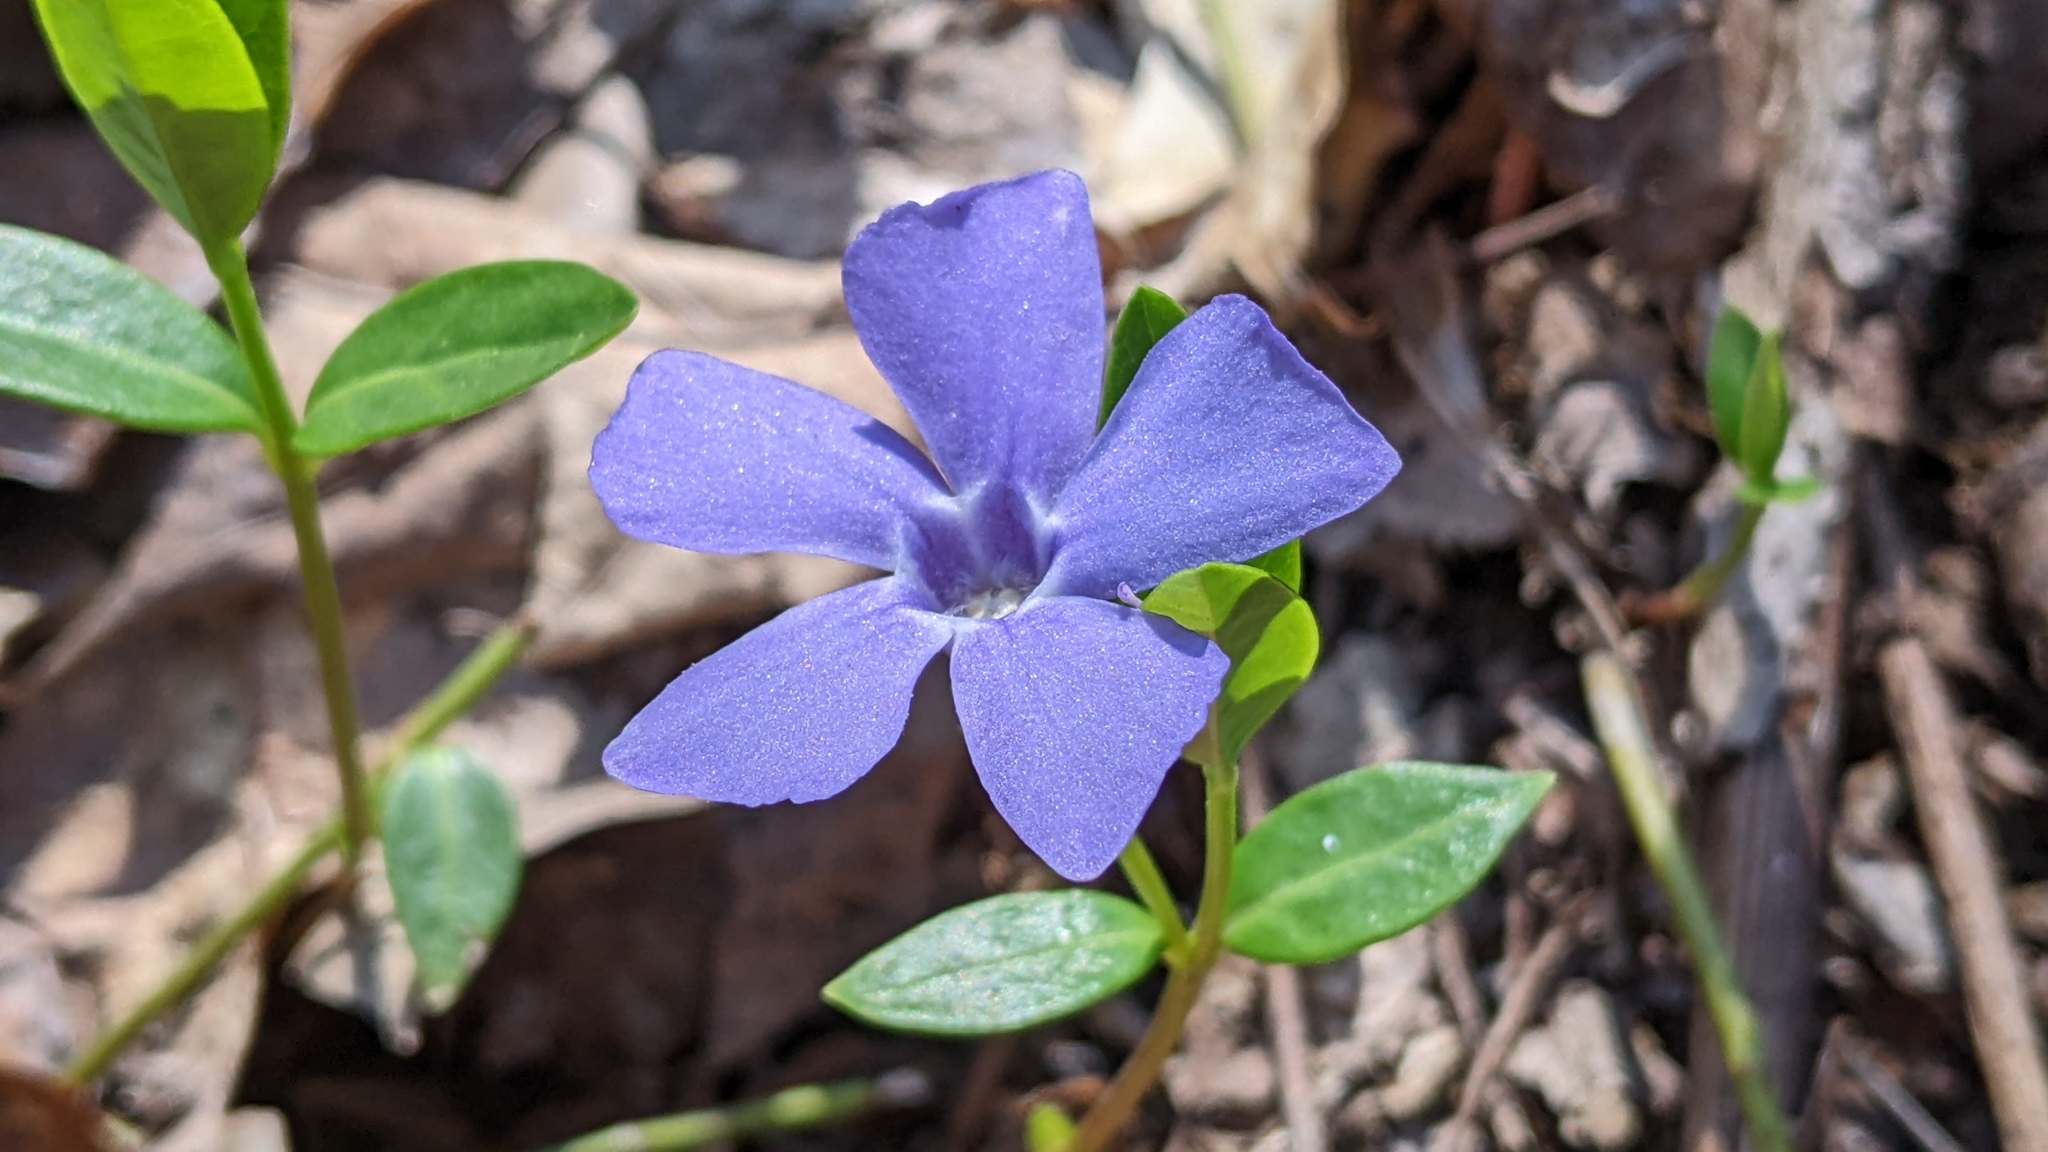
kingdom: Plantae
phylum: Tracheophyta
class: Magnoliopsida
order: Gentianales
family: Apocynaceae
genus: Vinca
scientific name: Vinca minor
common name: Lesser periwinkle
